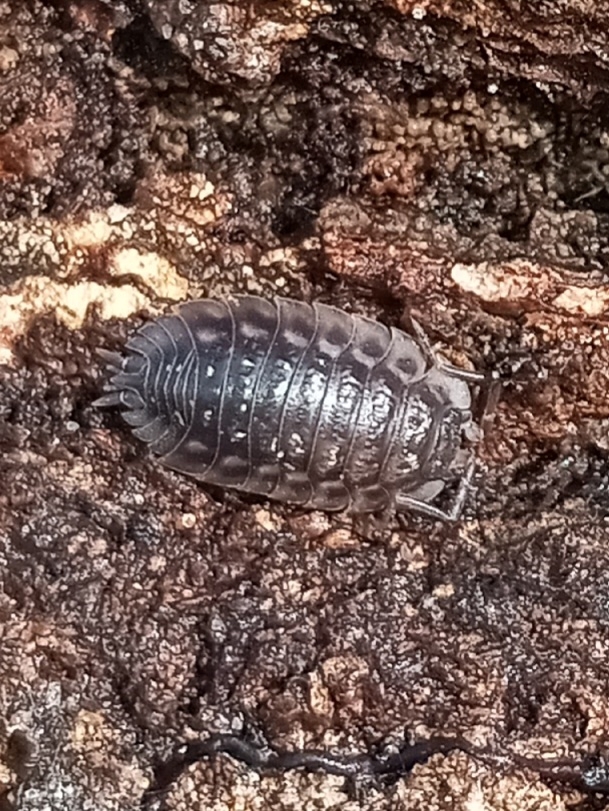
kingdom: Animalia
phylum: Arthropoda
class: Malacostraca
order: Isopoda
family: Oniscidae
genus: Oniscus
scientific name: Oniscus asellus
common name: Common shiny woodlouse
